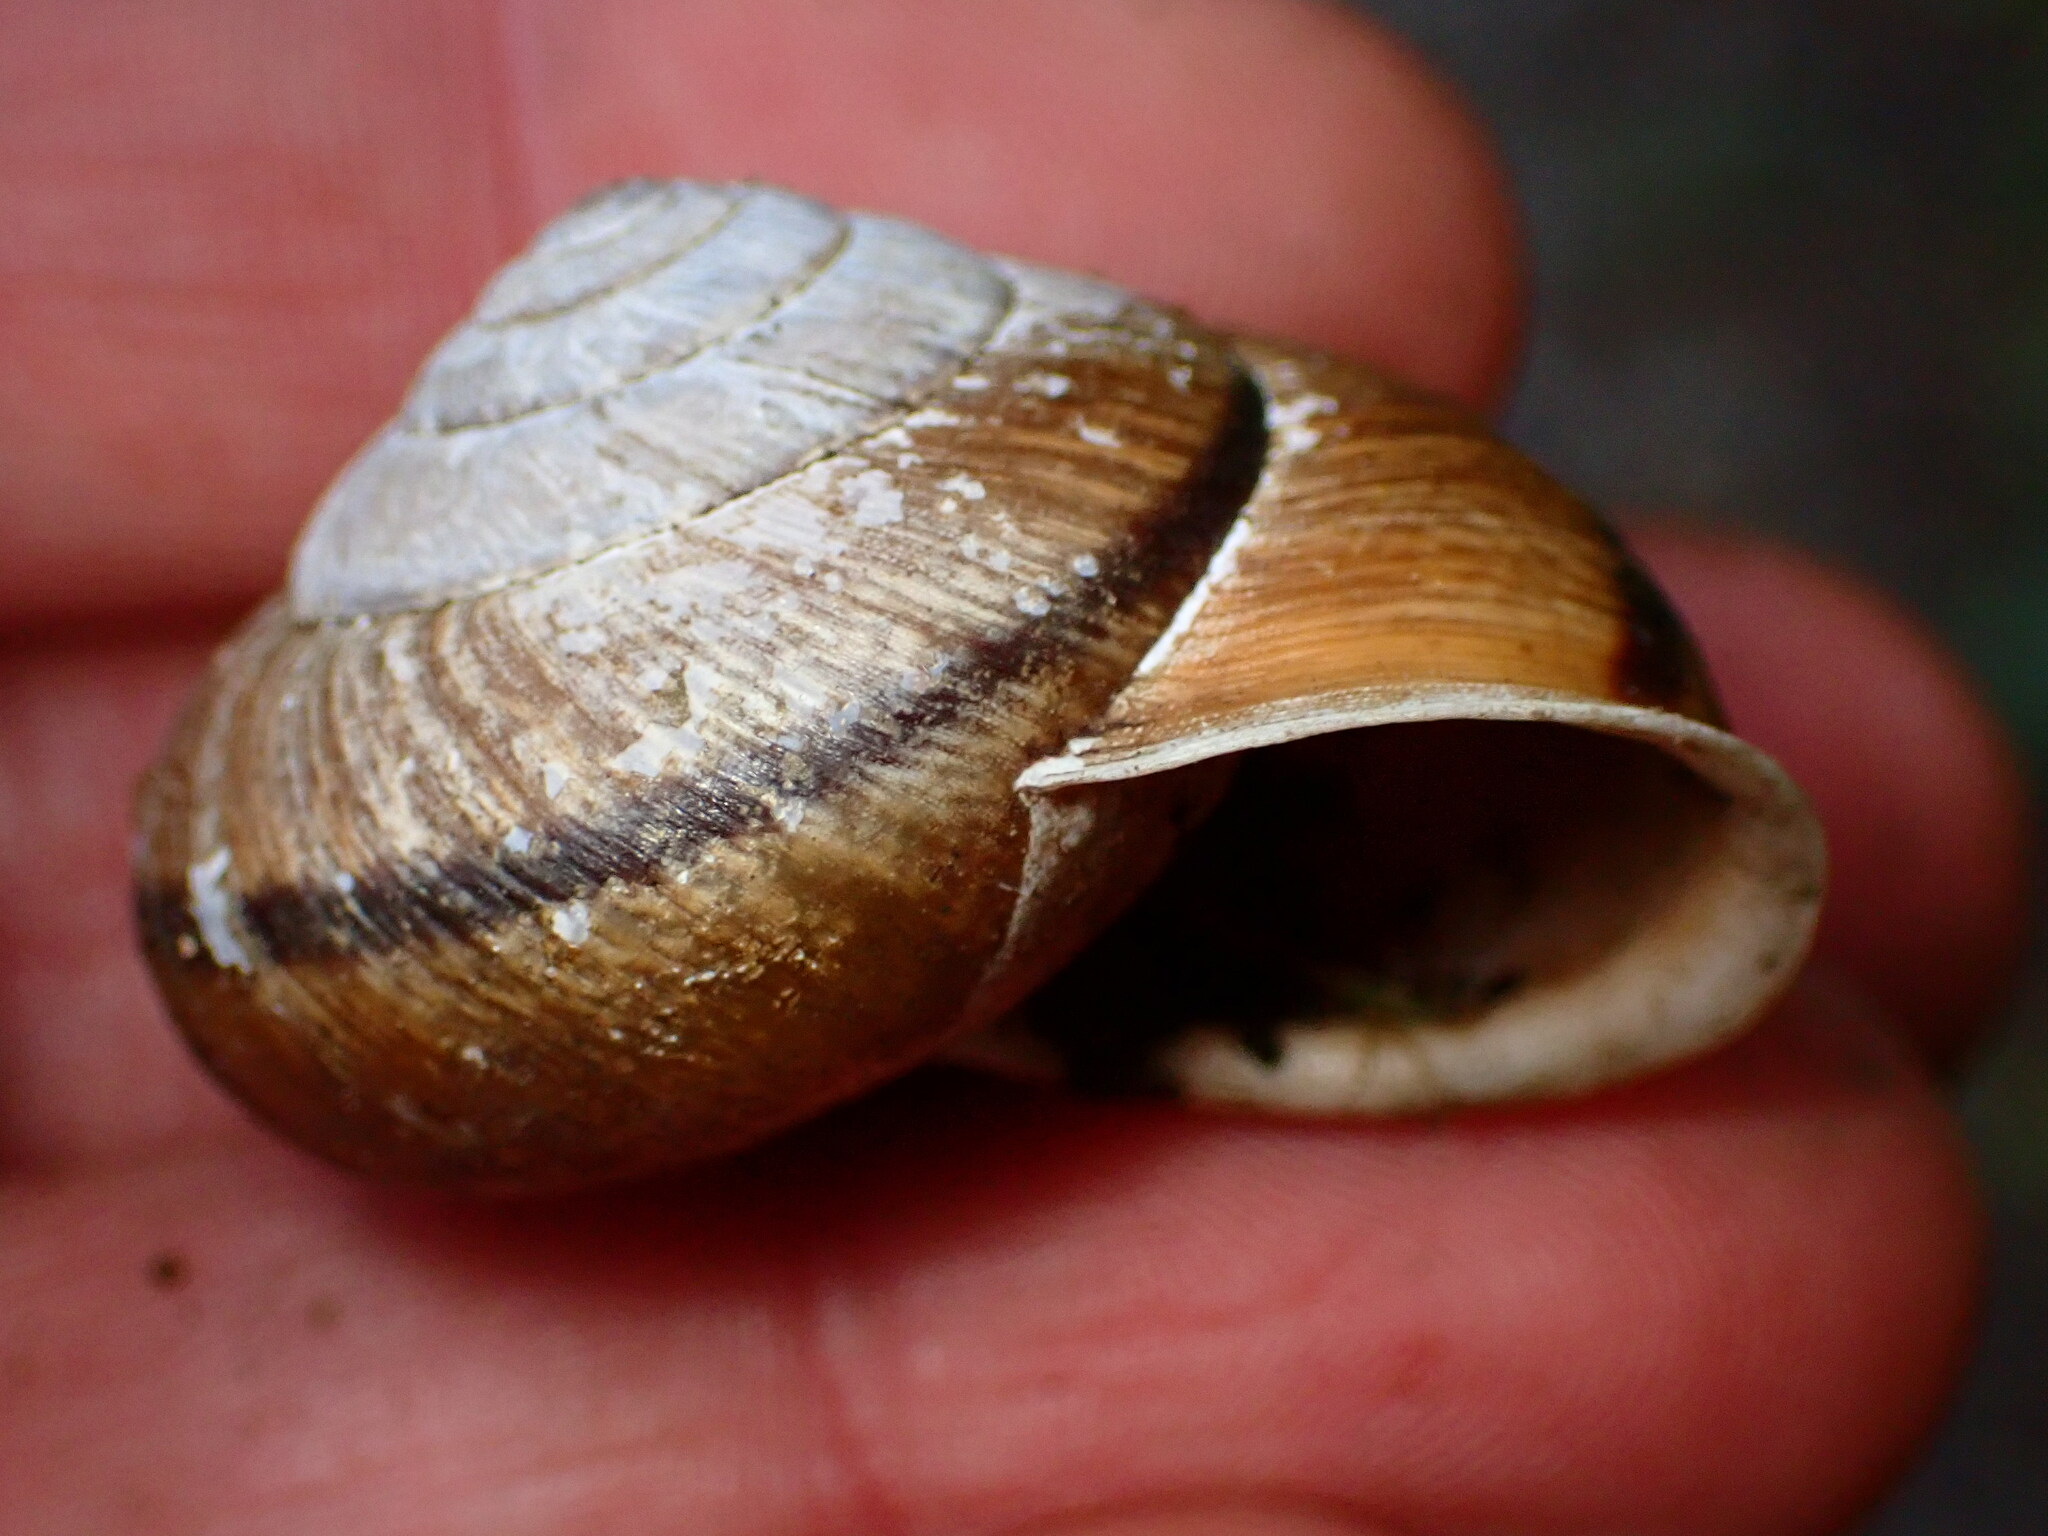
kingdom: Animalia
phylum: Mollusca
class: Gastropoda
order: Stylommatophora
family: Xanthonychidae
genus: Helminthoglypta
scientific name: Helminthoglypta arrosa
